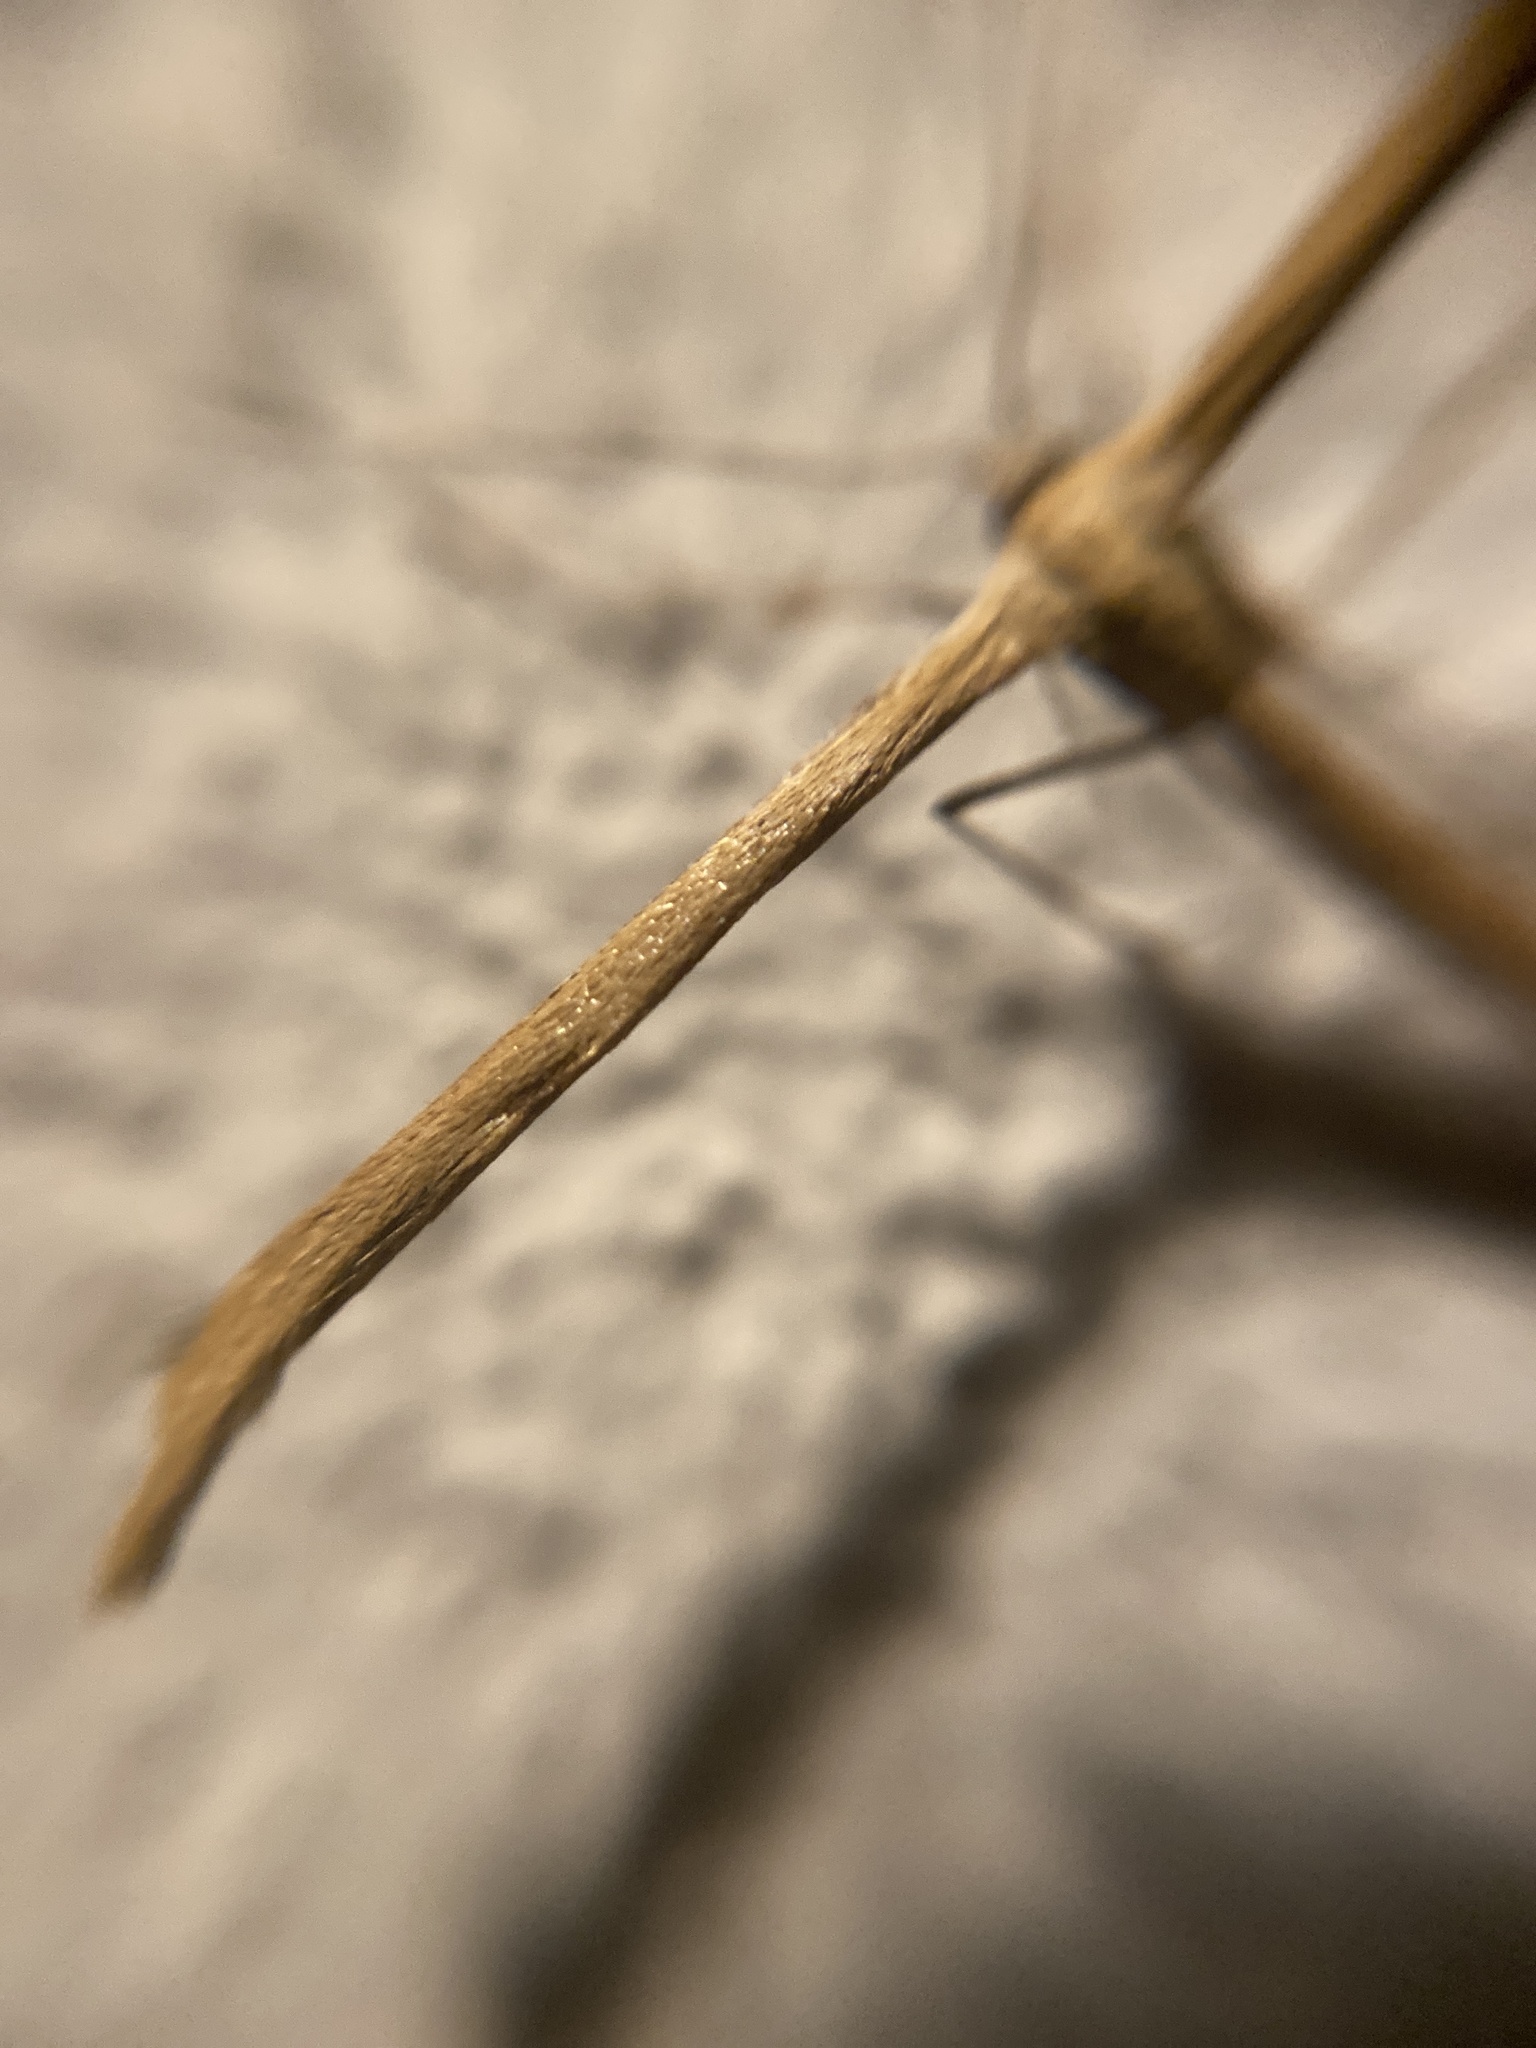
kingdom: Animalia
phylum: Arthropoda
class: Insecta
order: Lepidoptera
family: Pterophoridae
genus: Emmelina
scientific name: Emmelina monodactyla
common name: Common plume
